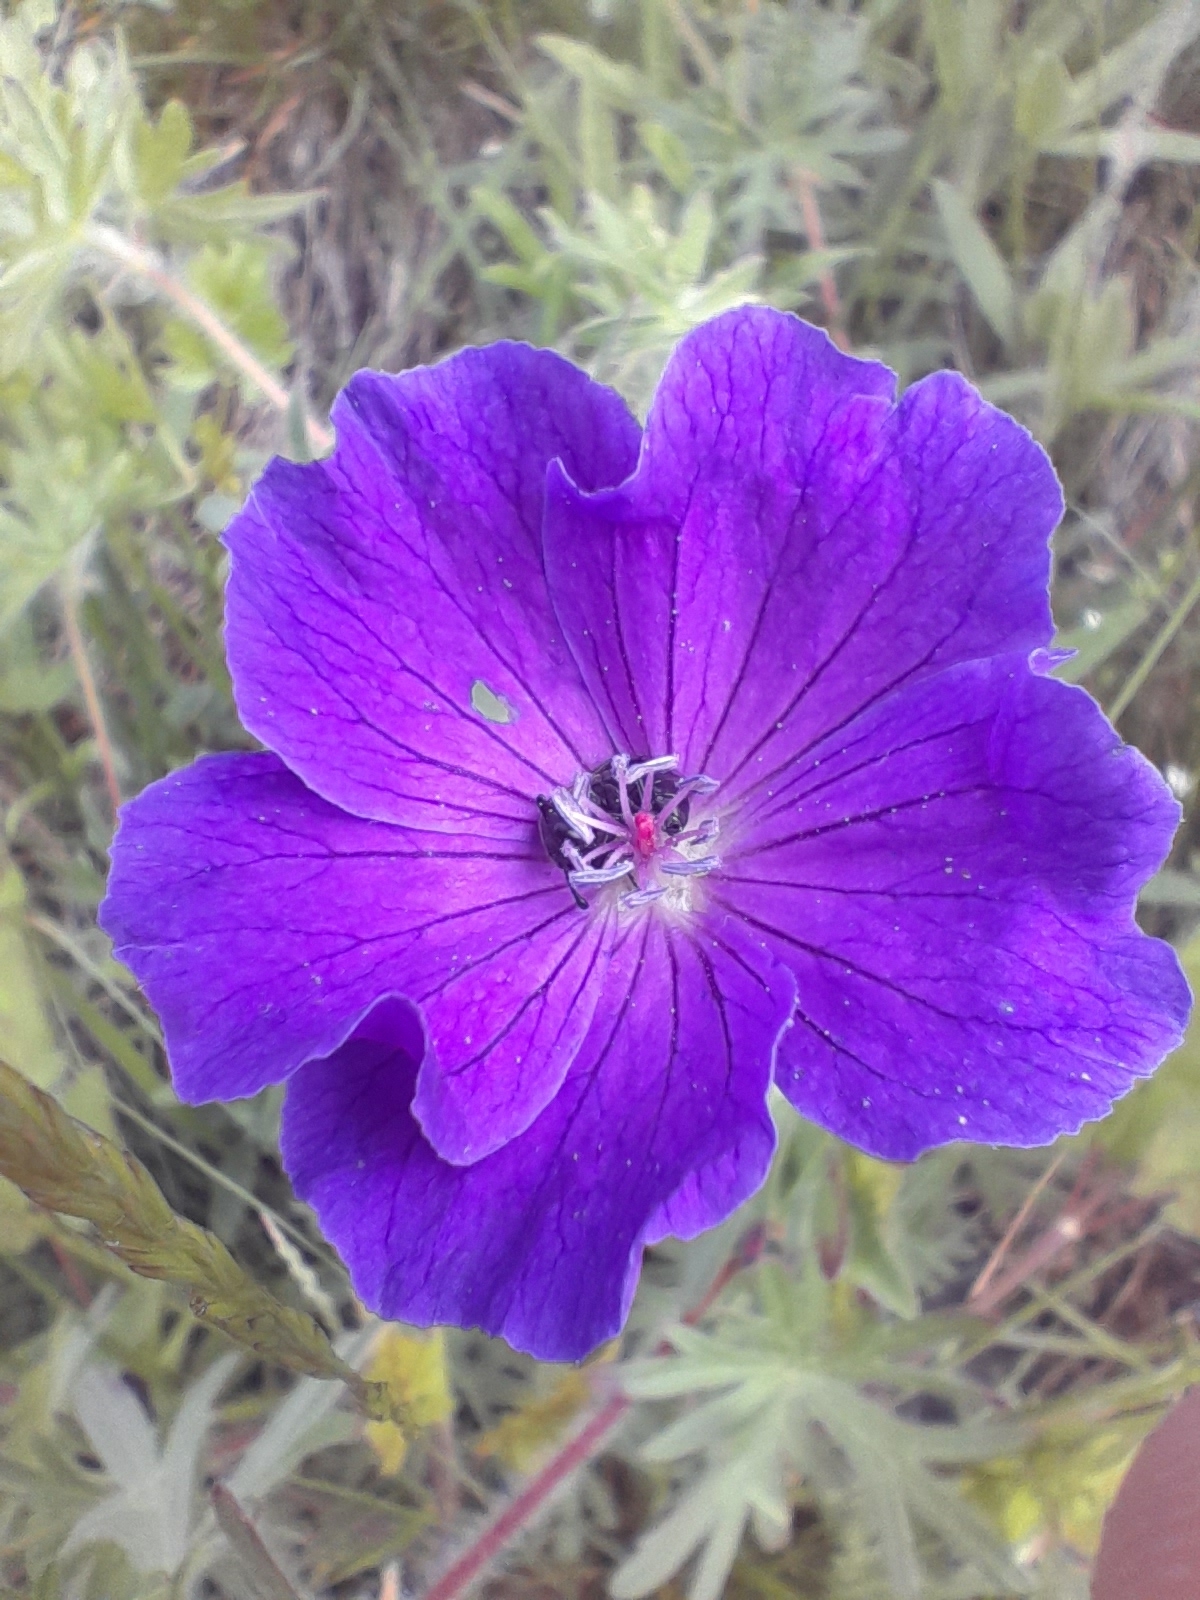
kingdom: Plantae
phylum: Tracheophyta
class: Magnoliopsida
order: Geraniales
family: Geraniaceae
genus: Geranium
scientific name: Geranium sanguineum
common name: Bloody crane's-bill
